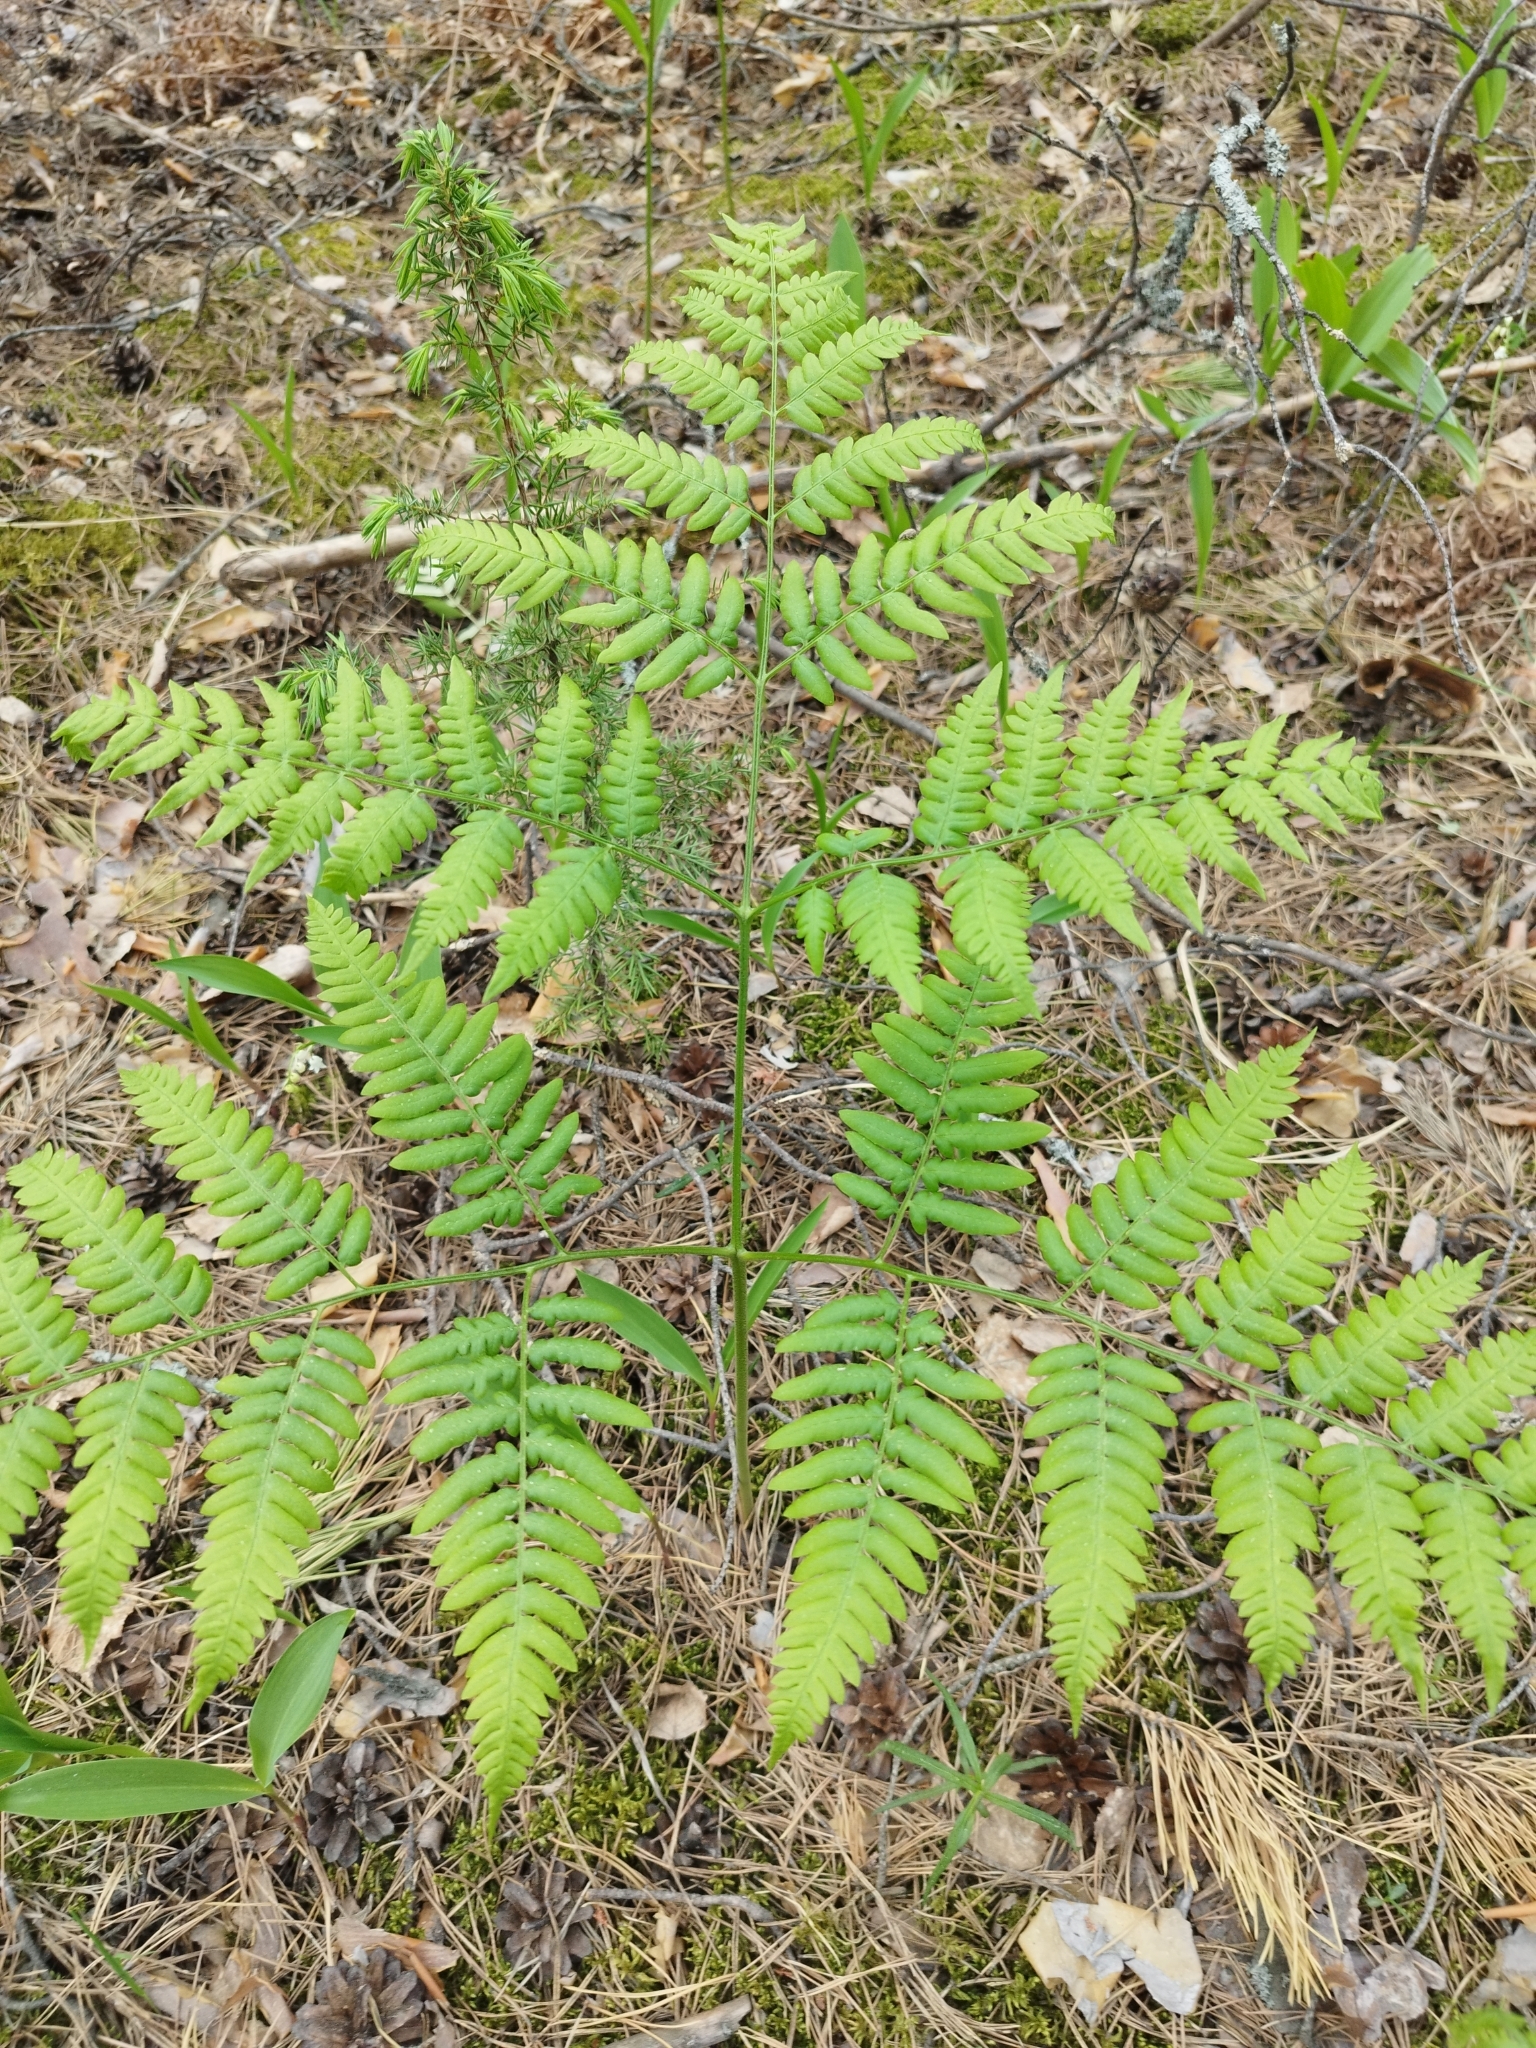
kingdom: Plantae
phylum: Tracheophyta
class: Polypodiopsida
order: Polypodiales
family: Dennstaedtiaceae
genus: Pteridium
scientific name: Pteridium aquilinum
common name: Bracken
